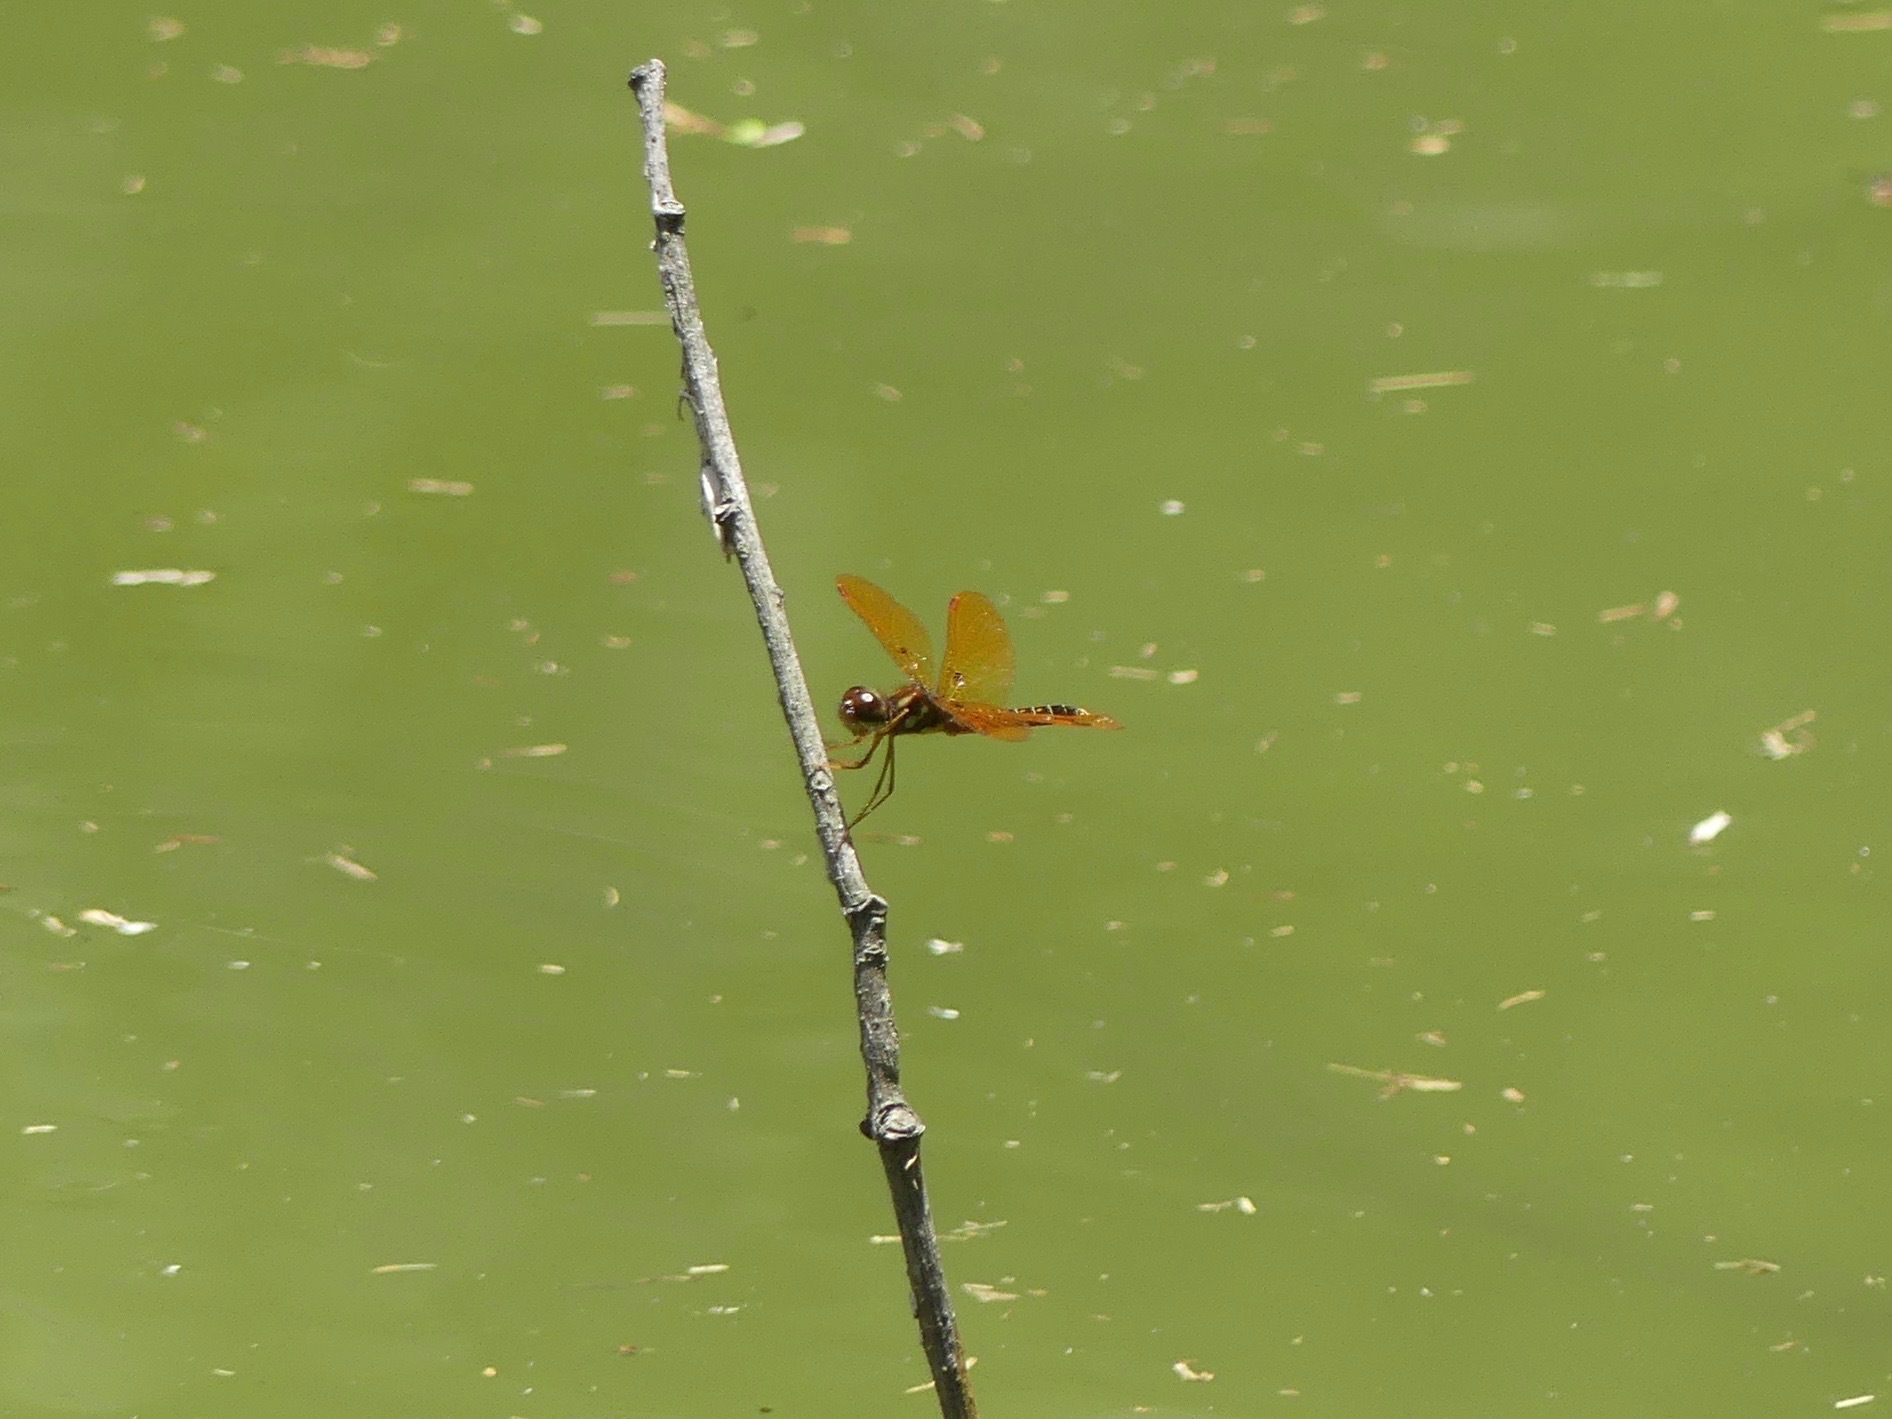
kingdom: Animalia
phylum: Arthropoda
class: Insecta
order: Odonata
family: Libellulidae
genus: Perithemis
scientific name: Perithemis tenera
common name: Eastern amberwing
